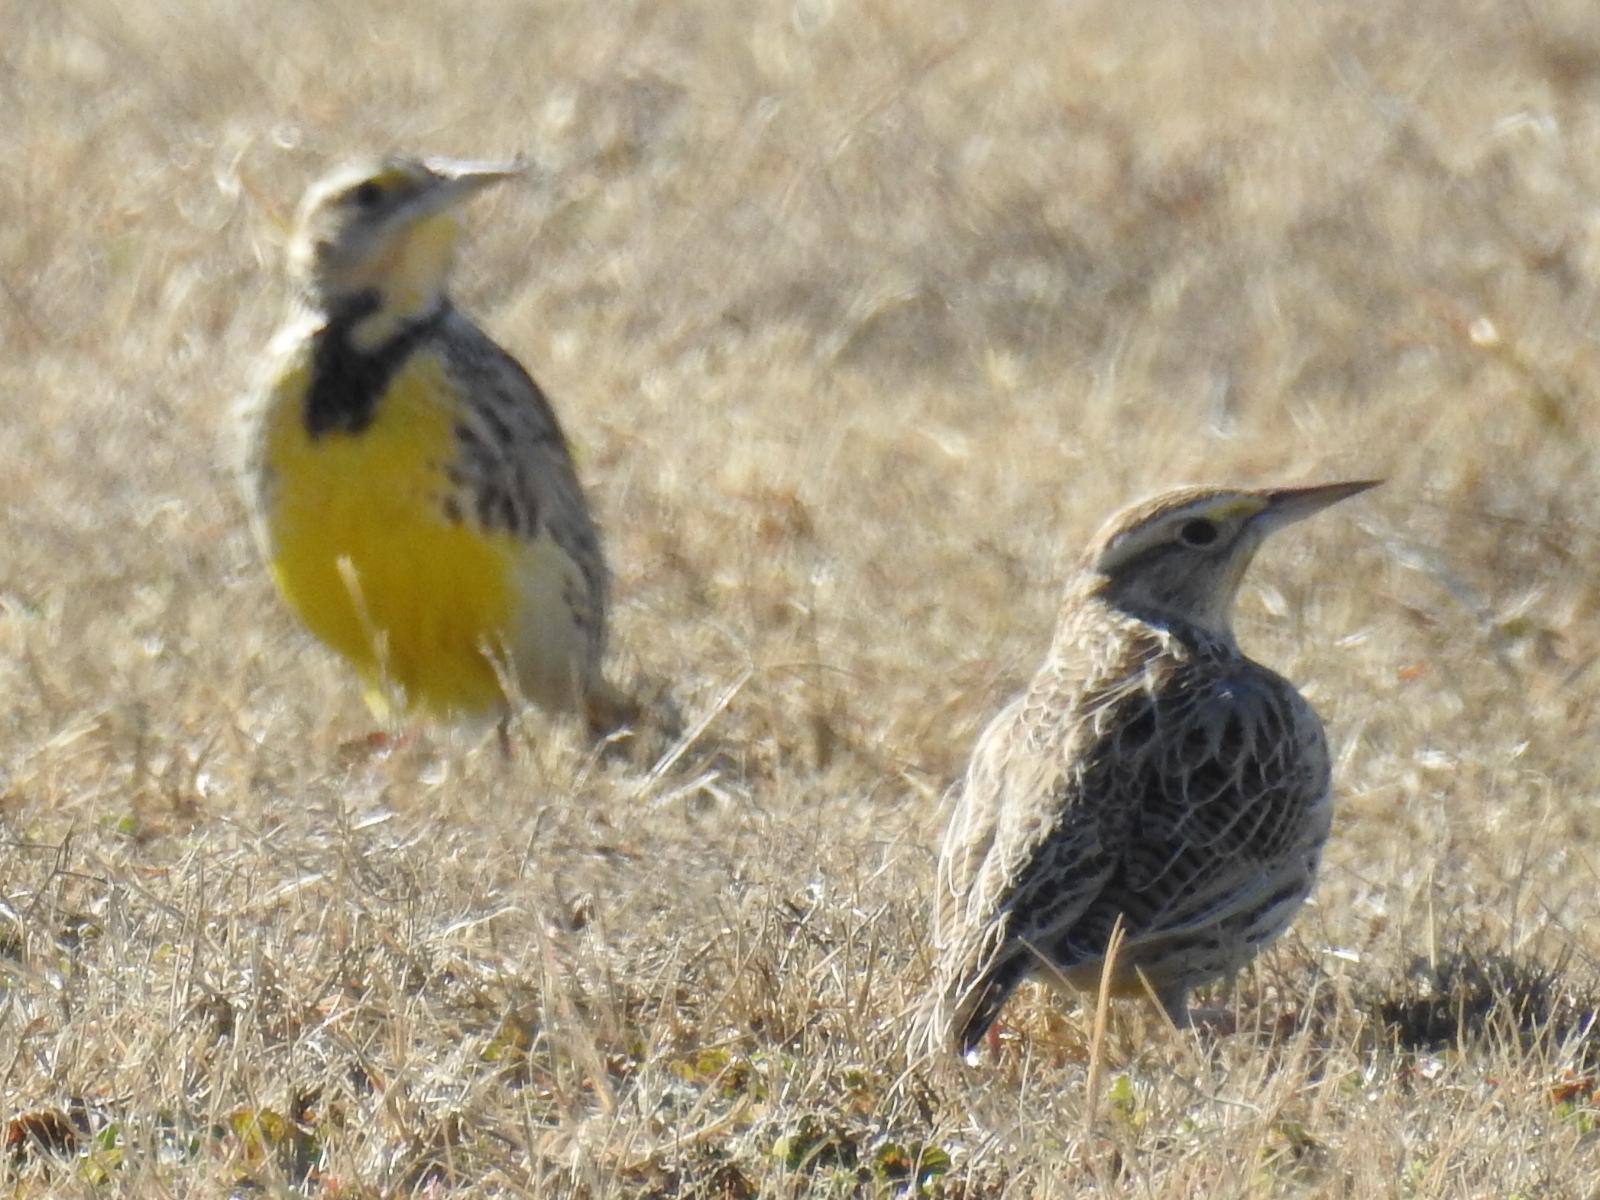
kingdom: Animalia
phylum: Chordata
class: Aves
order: Passeriformes
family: Icteridae
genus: Sturnella
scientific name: Sturnella
